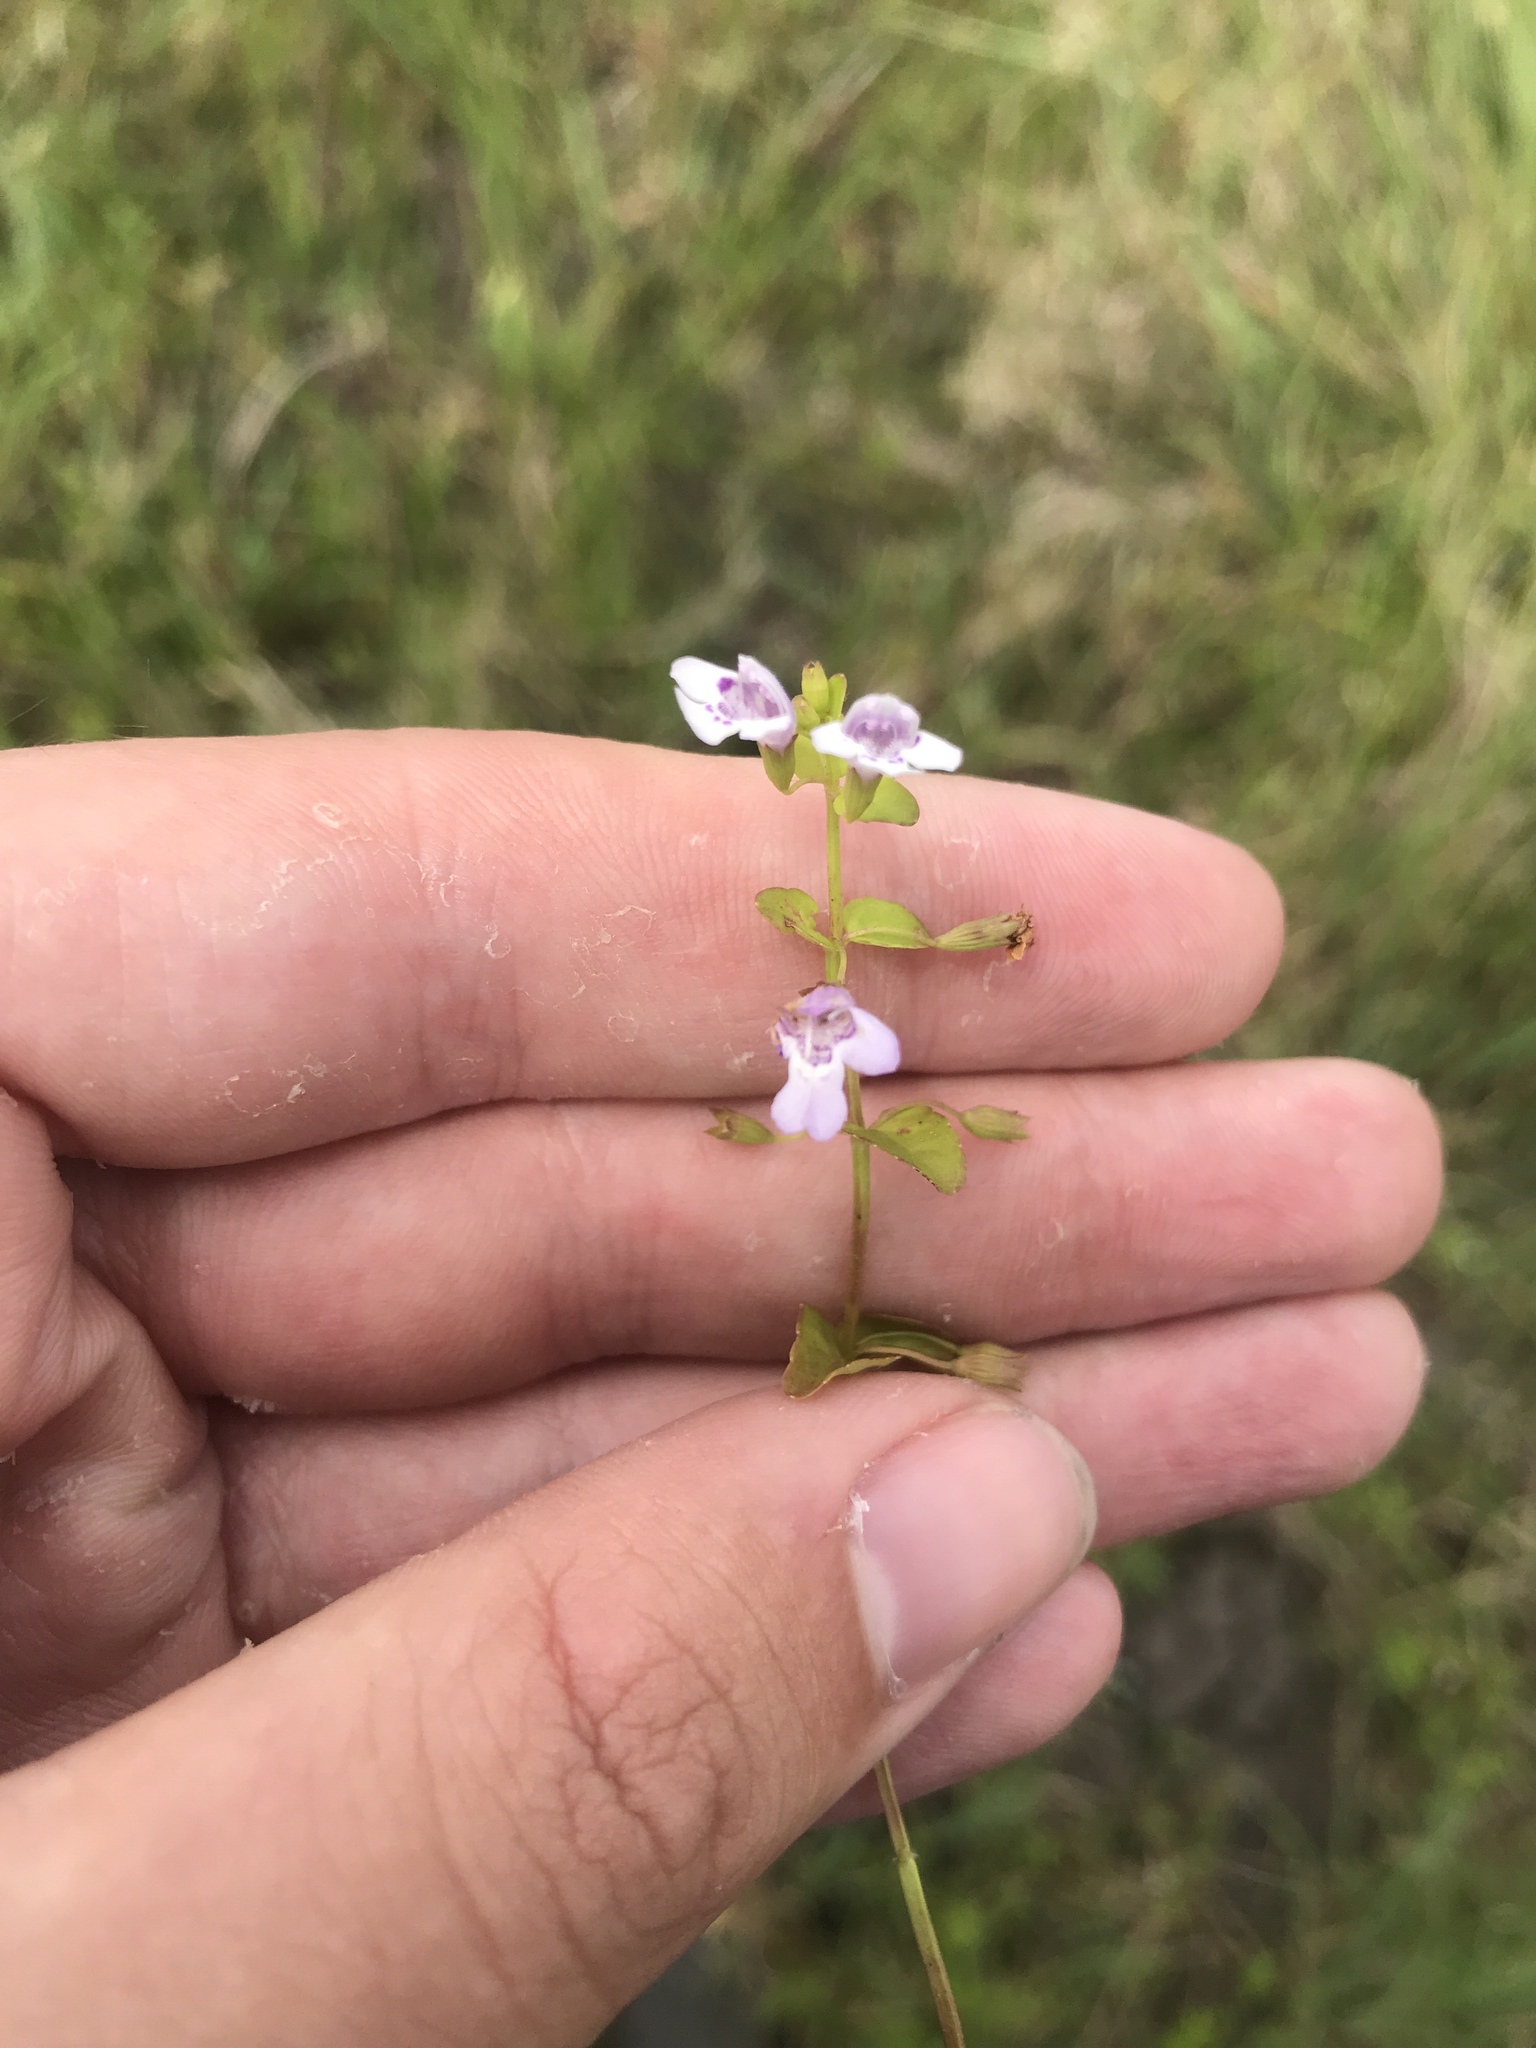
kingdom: Plantae
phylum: Tracheophyta
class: Magnoliopsida
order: Lamiales
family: Lamiaceae
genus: Clinopodium
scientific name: Clinopodium brownei
